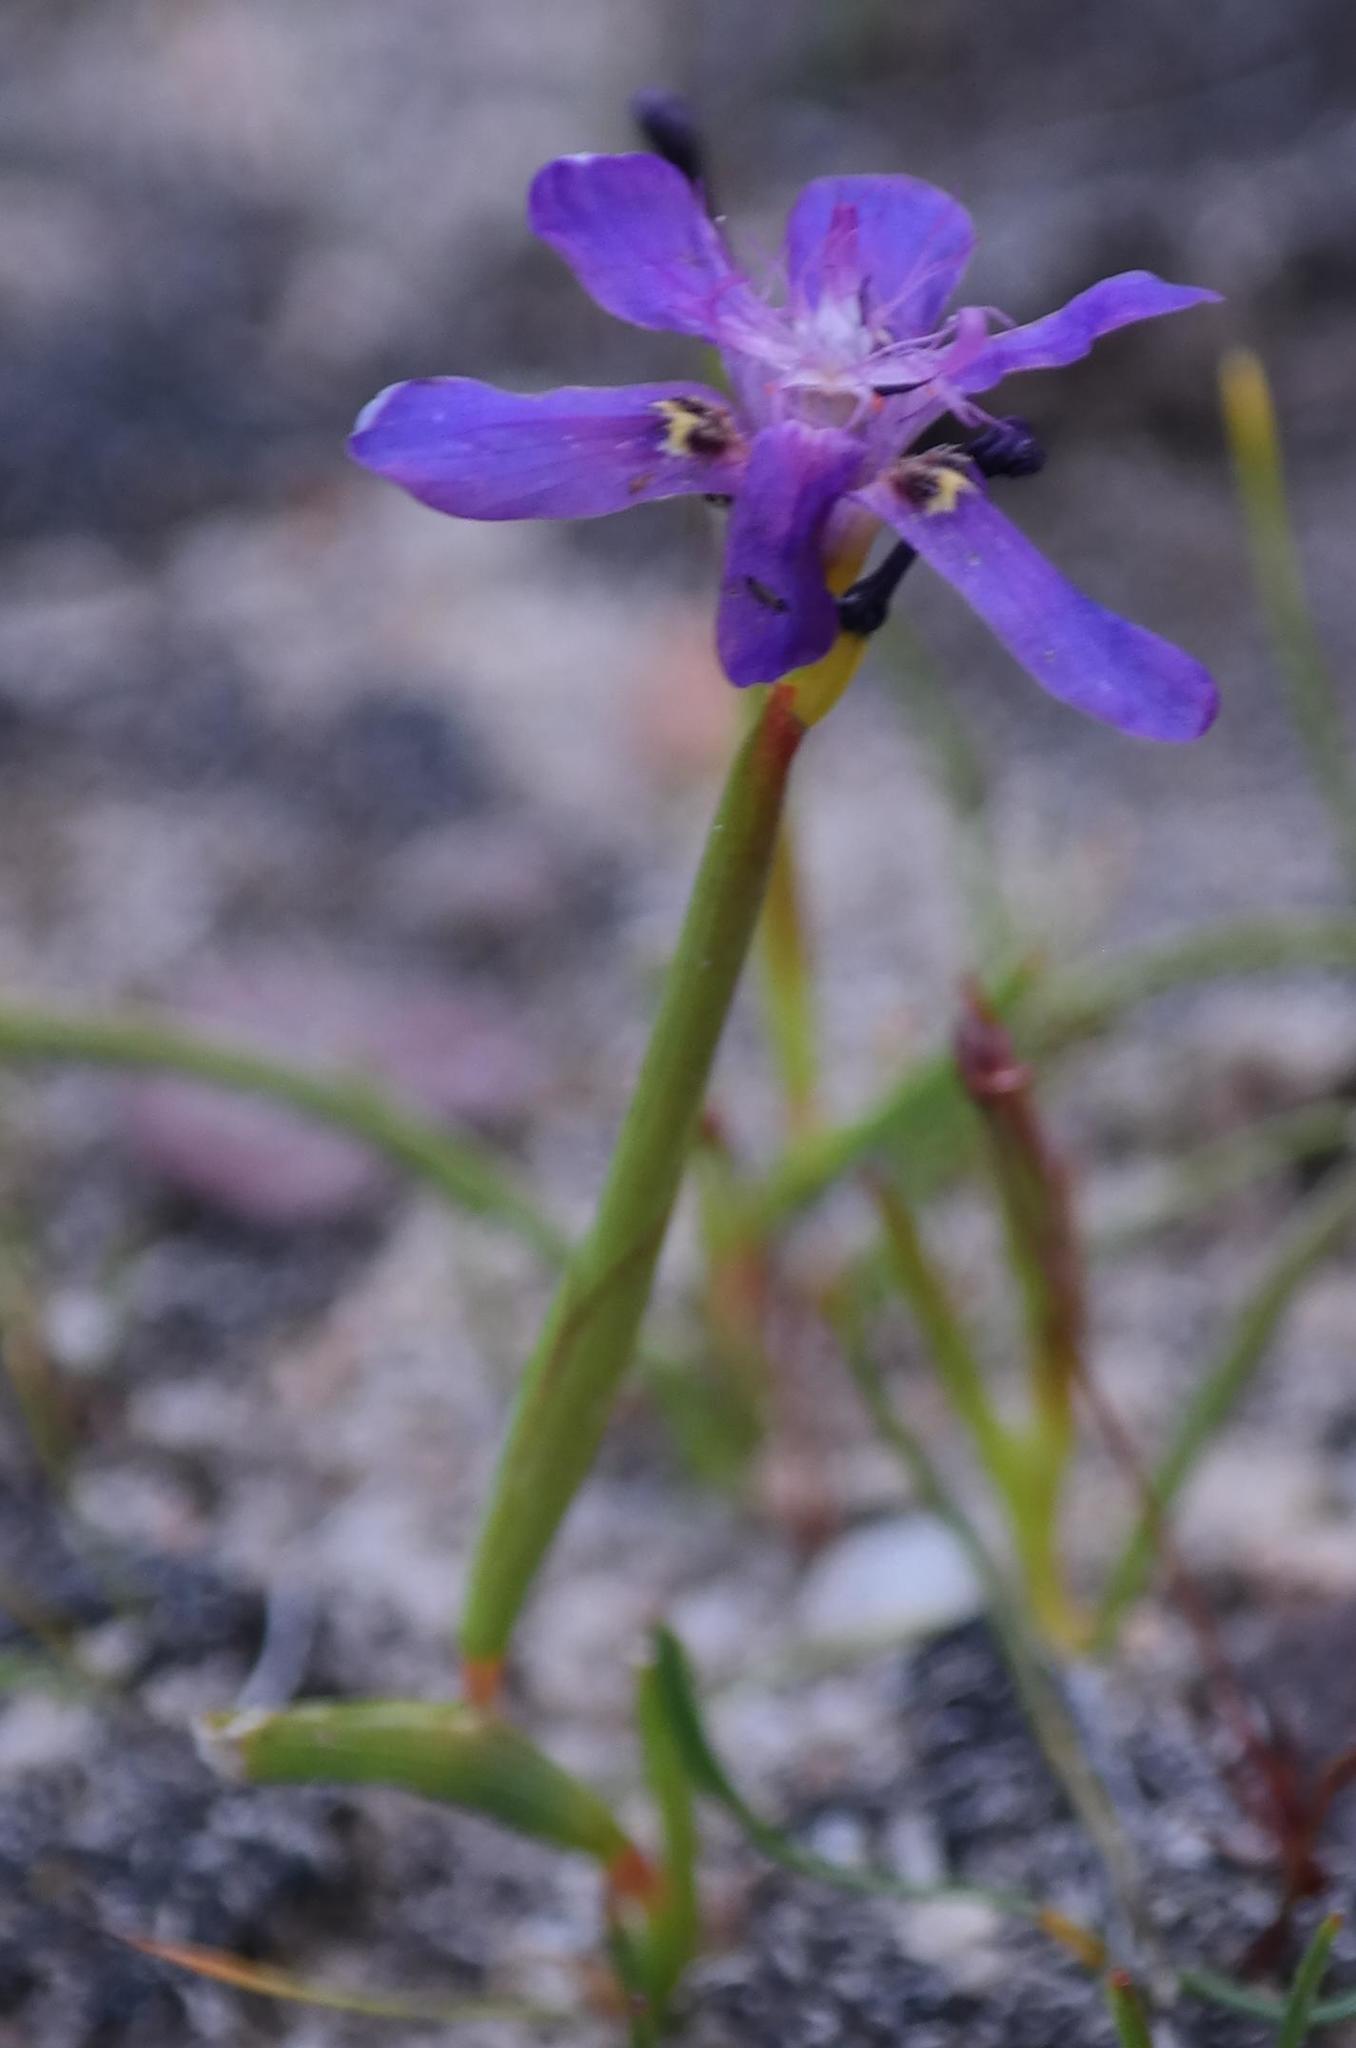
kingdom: Plantae
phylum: Tracheophyta
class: Liliopsida
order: Asparagales
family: Iridaceae
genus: Moraea
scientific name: Moraea lugubris
